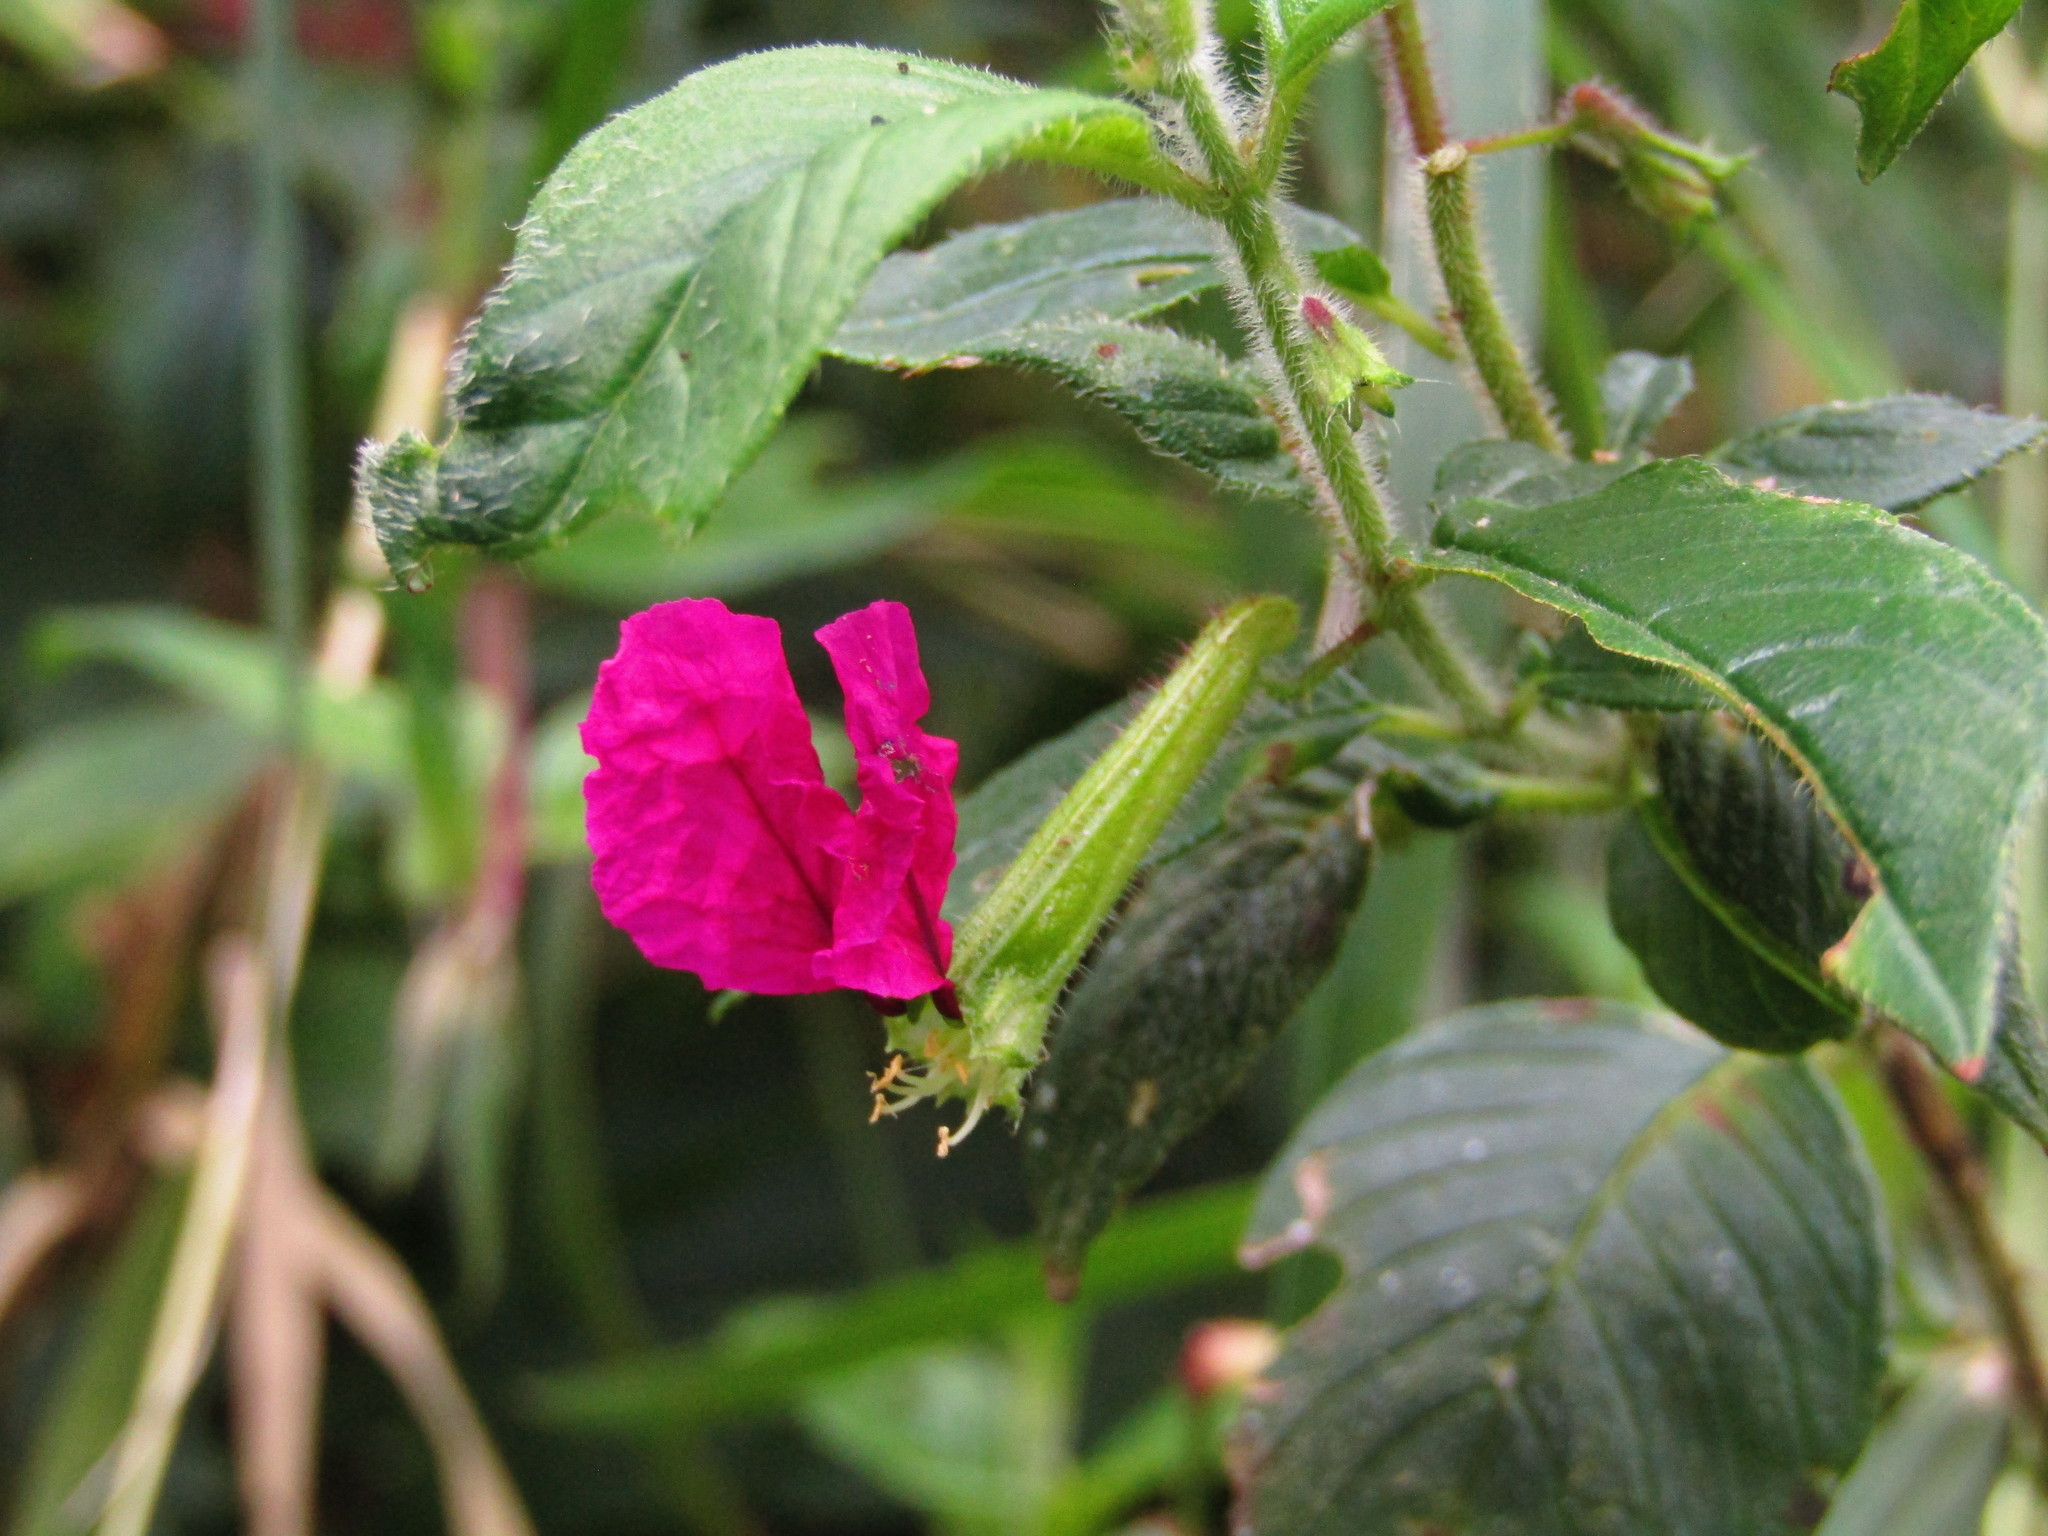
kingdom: Plantae
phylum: Tracheophyta
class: Magnoliopsida
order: Myrtales
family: Lythraceae
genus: Cuphea
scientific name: Cuphea nitidula
